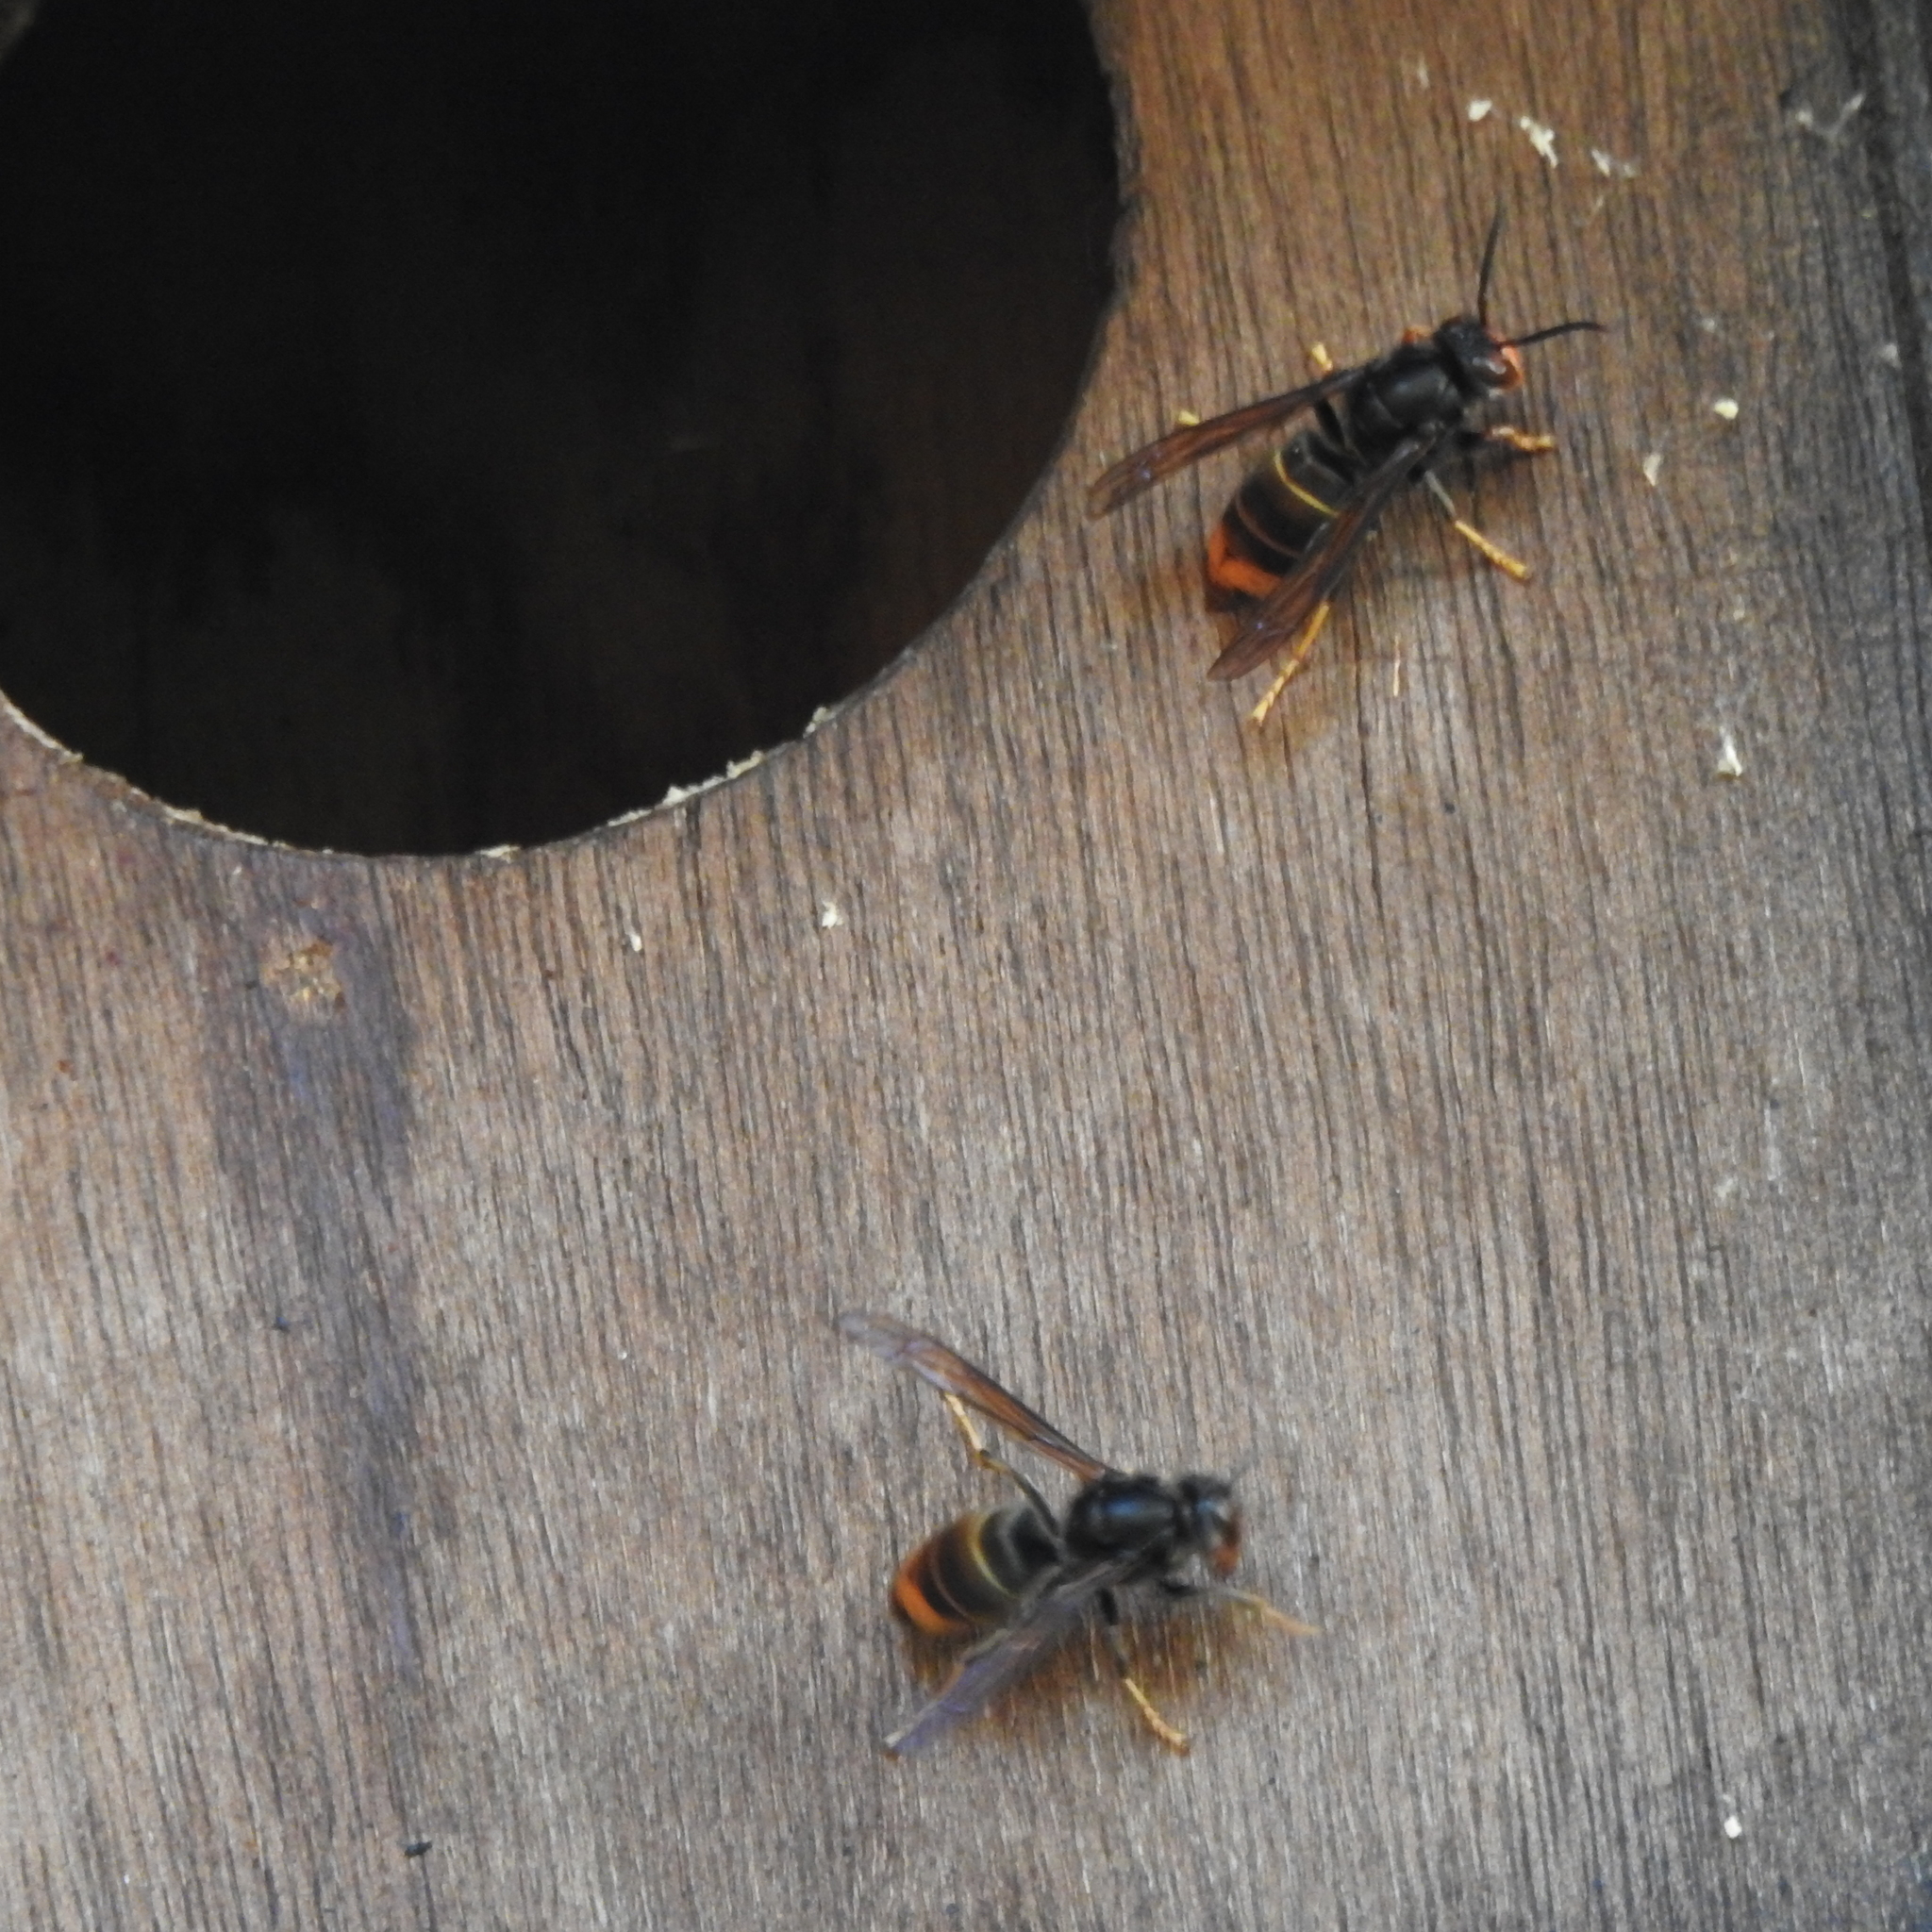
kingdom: Animalia
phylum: Arthropoda
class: Insecta
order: Hymenoptera
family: Vespidae
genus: Vespa
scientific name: Vespa velutina
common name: Asian hornet
